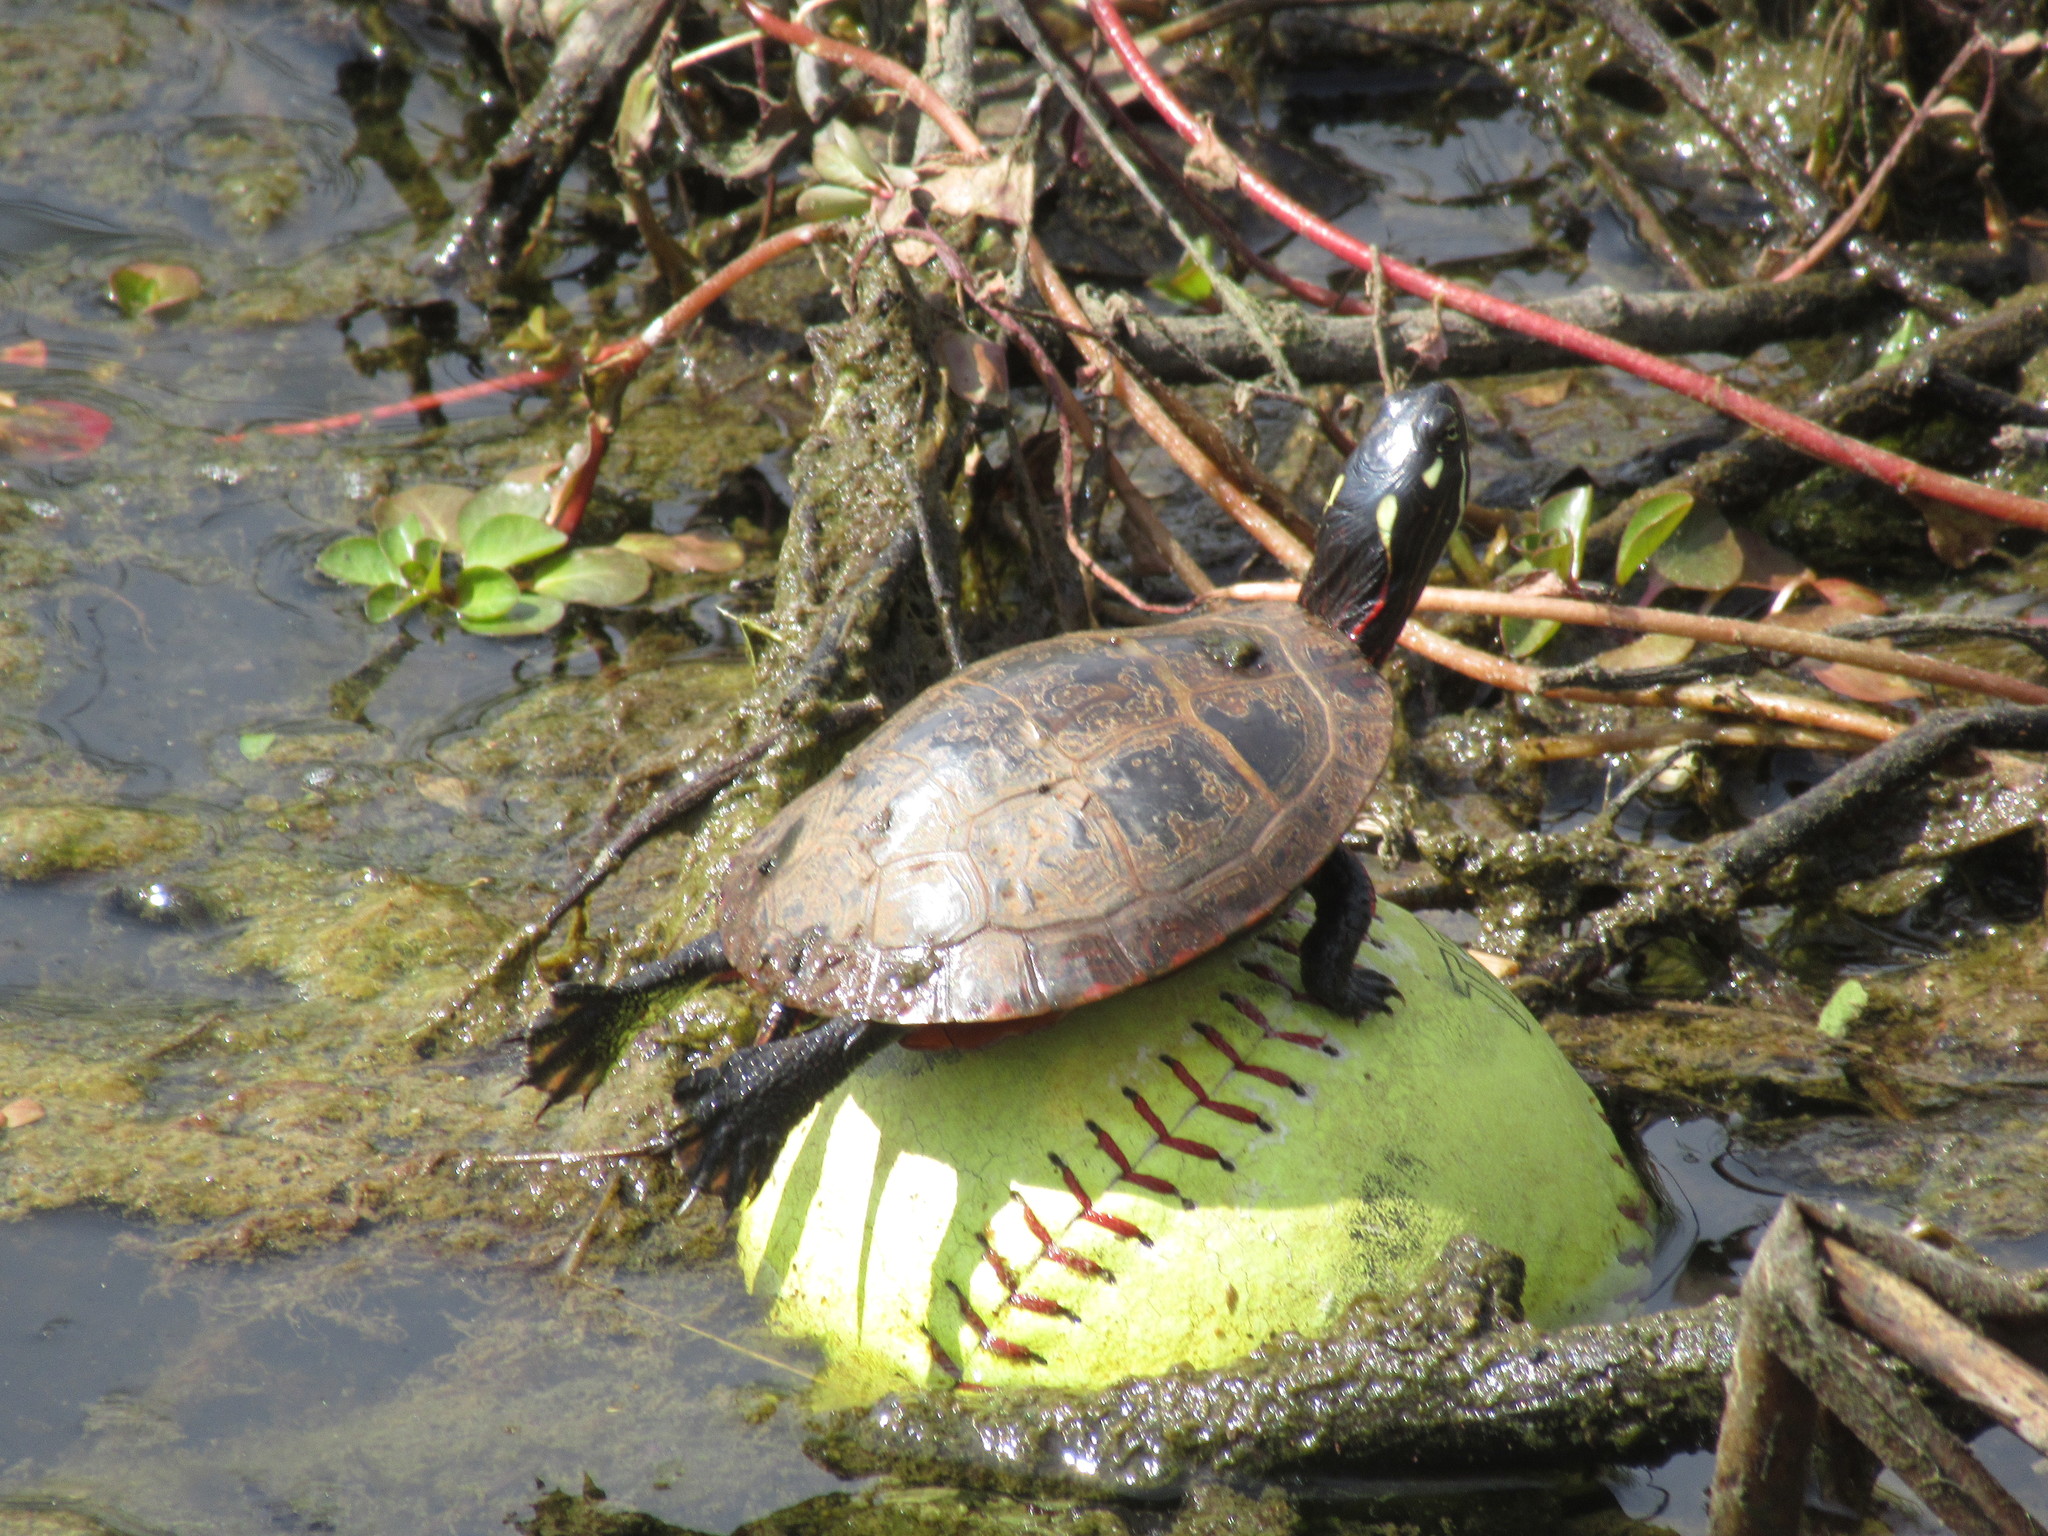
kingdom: Animalia
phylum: Chordata
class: Testudines
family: Emydidae
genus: Chrysemys
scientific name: Chrysemys picta
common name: Painted turtle
